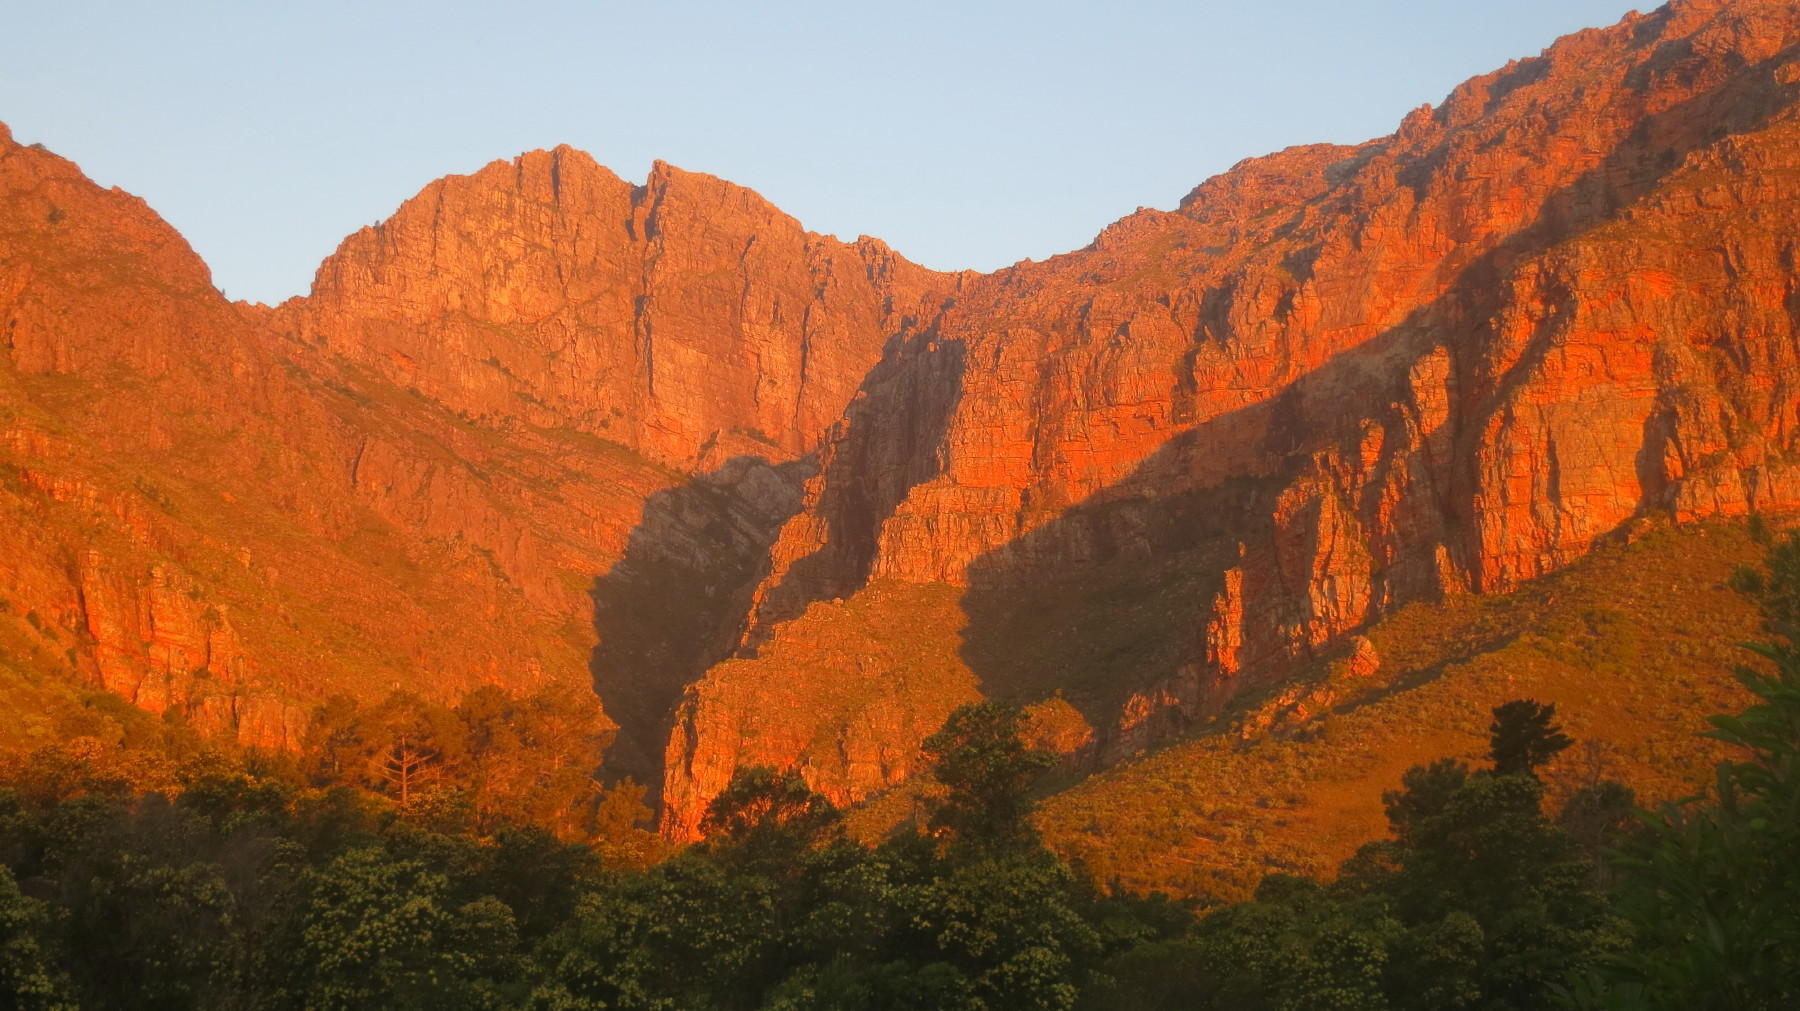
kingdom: Plantae
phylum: Tracheophyta
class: Magnoliopsida
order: Fabales
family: Fabaceae
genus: Acacia
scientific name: Acacia mearnsii
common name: Black wattle
